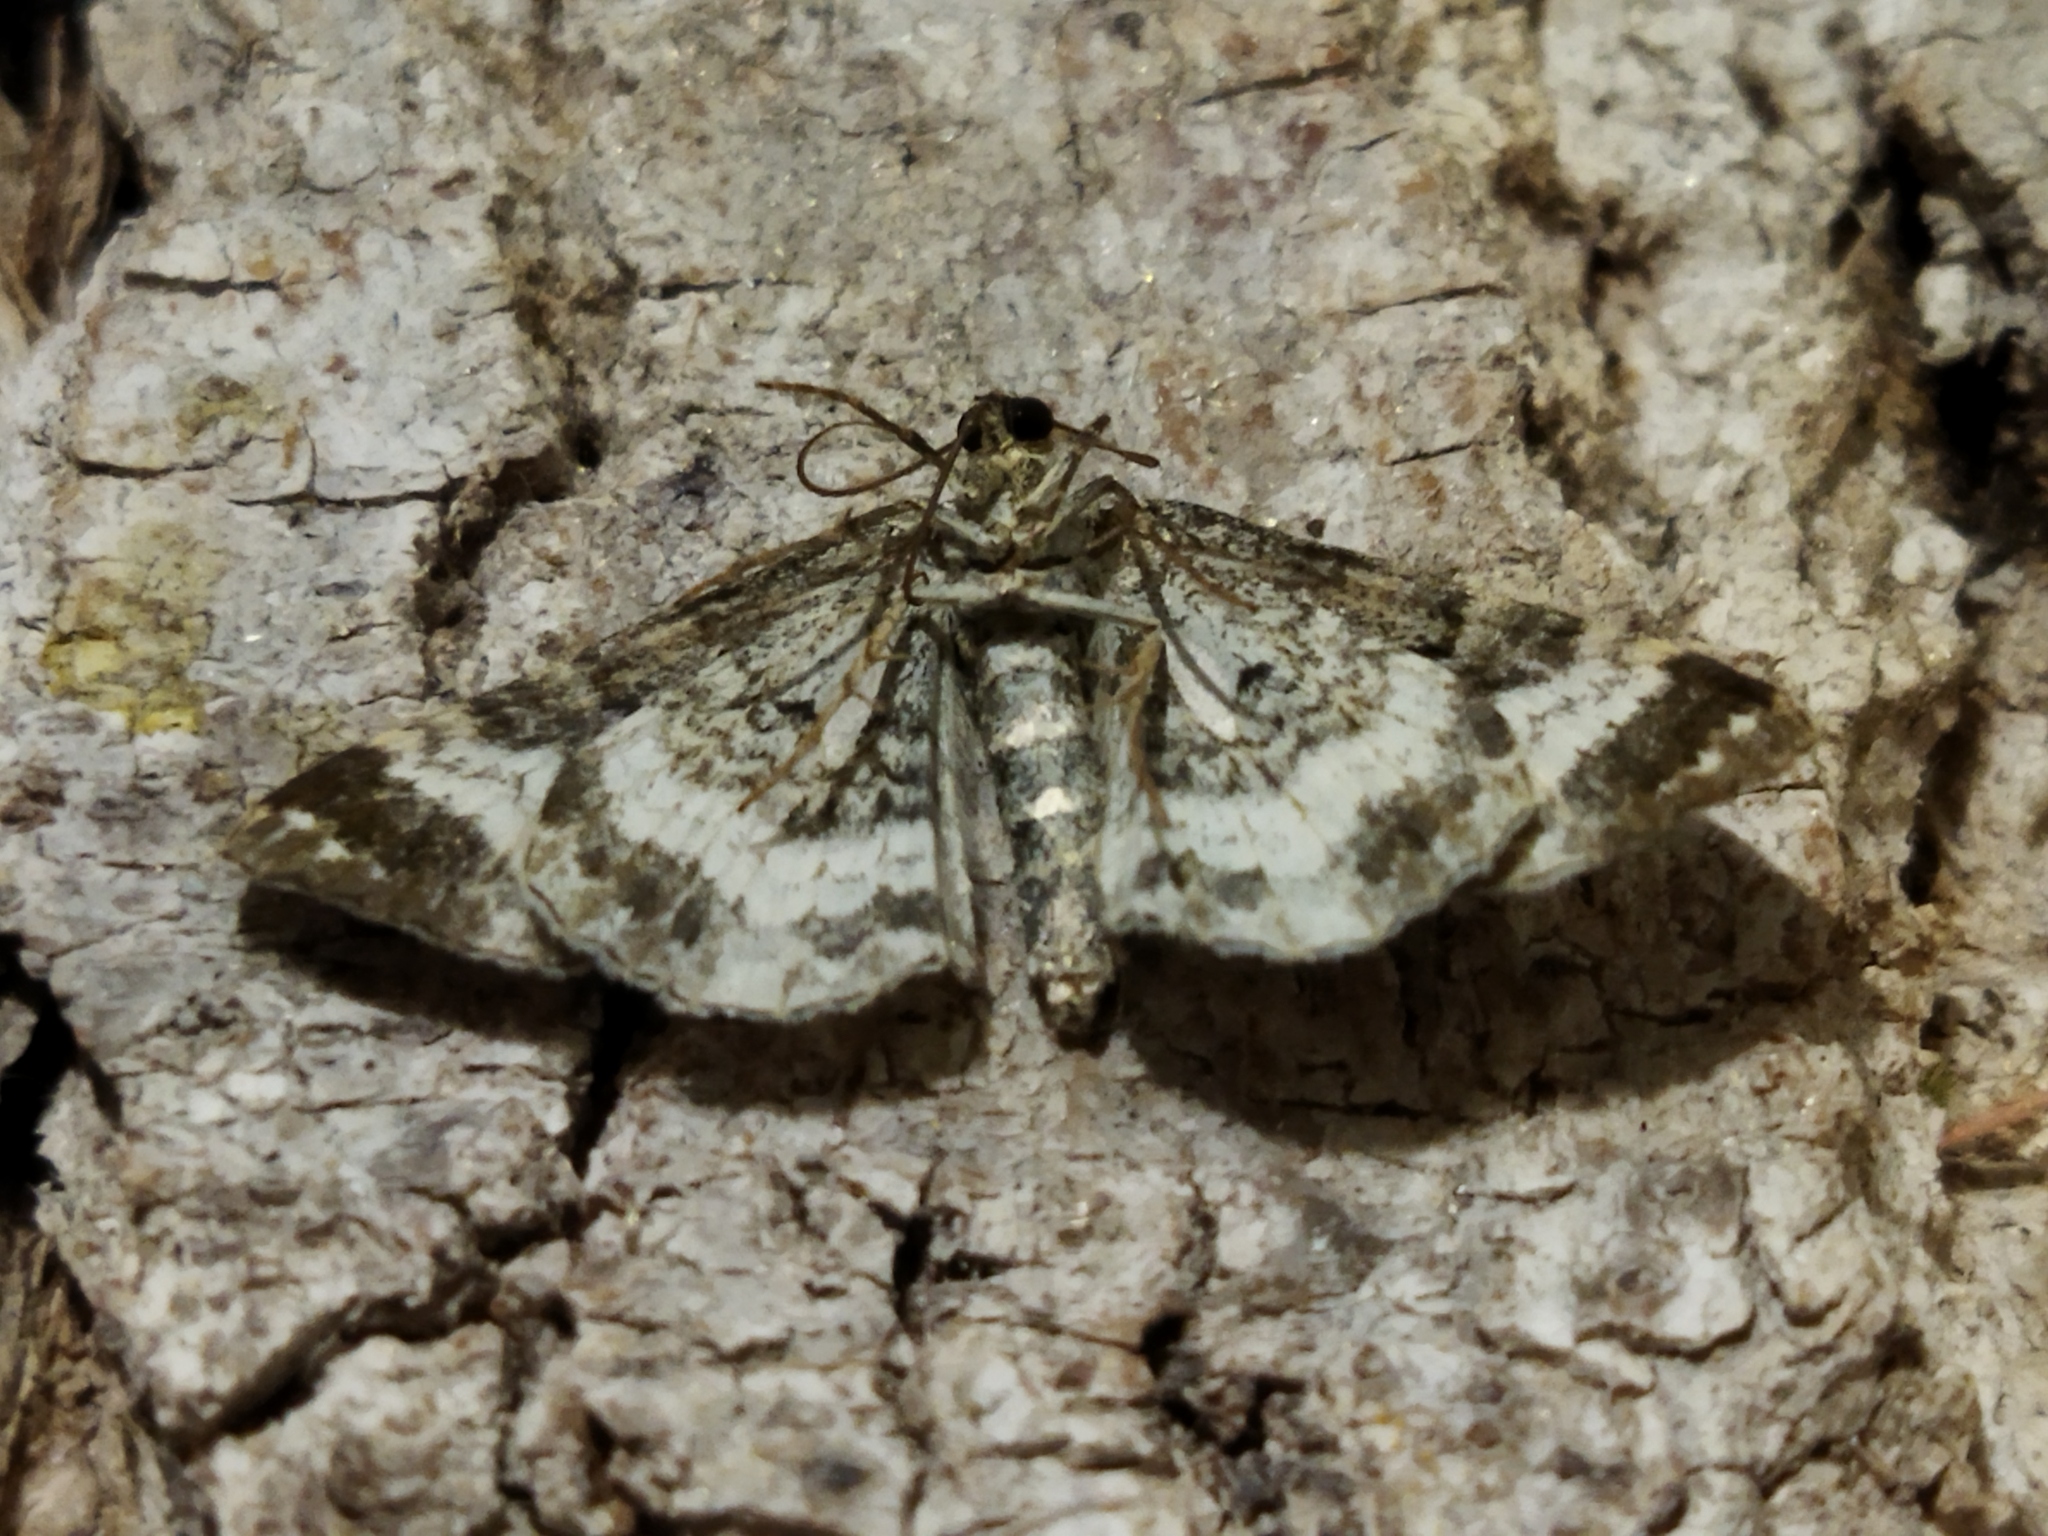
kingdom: Animalia
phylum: Arthropoda
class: Insecta
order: Lepidoptera
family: Geometridae
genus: Epirrhoe
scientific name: Epirrhoe alternata
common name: Common carpet
